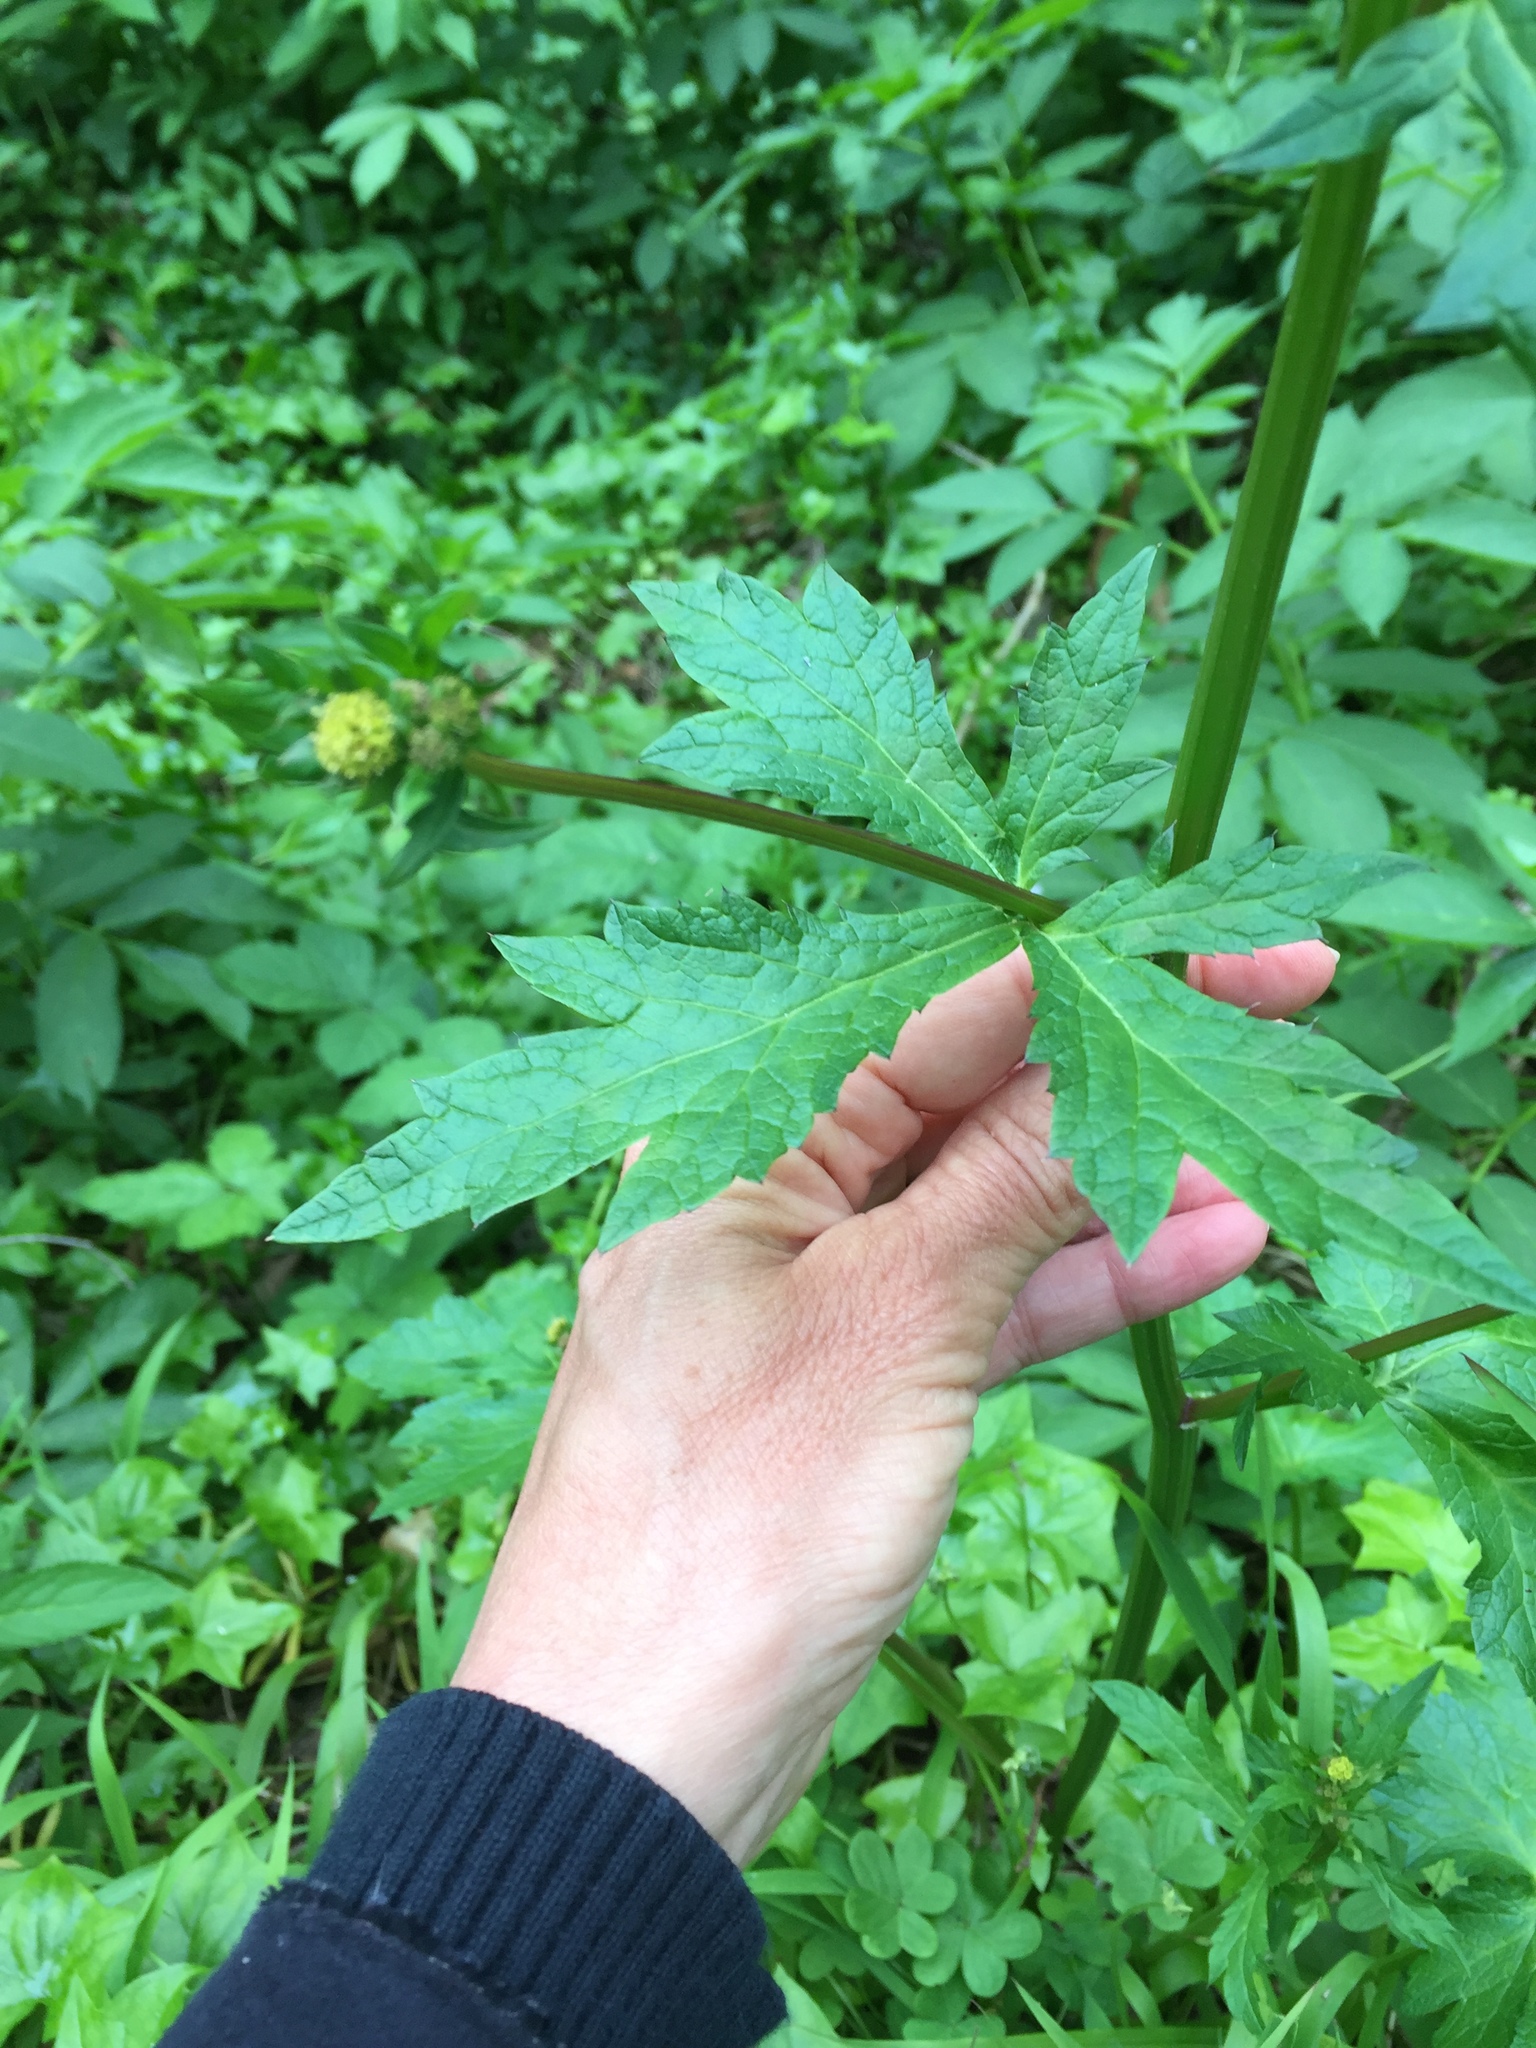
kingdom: Plantae
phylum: Tracheophyta
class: Magnoliopsida
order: Apiales
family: Apiaceae
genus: Sanicula
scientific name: Sanicula crassicaulis
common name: Western snakeroot
